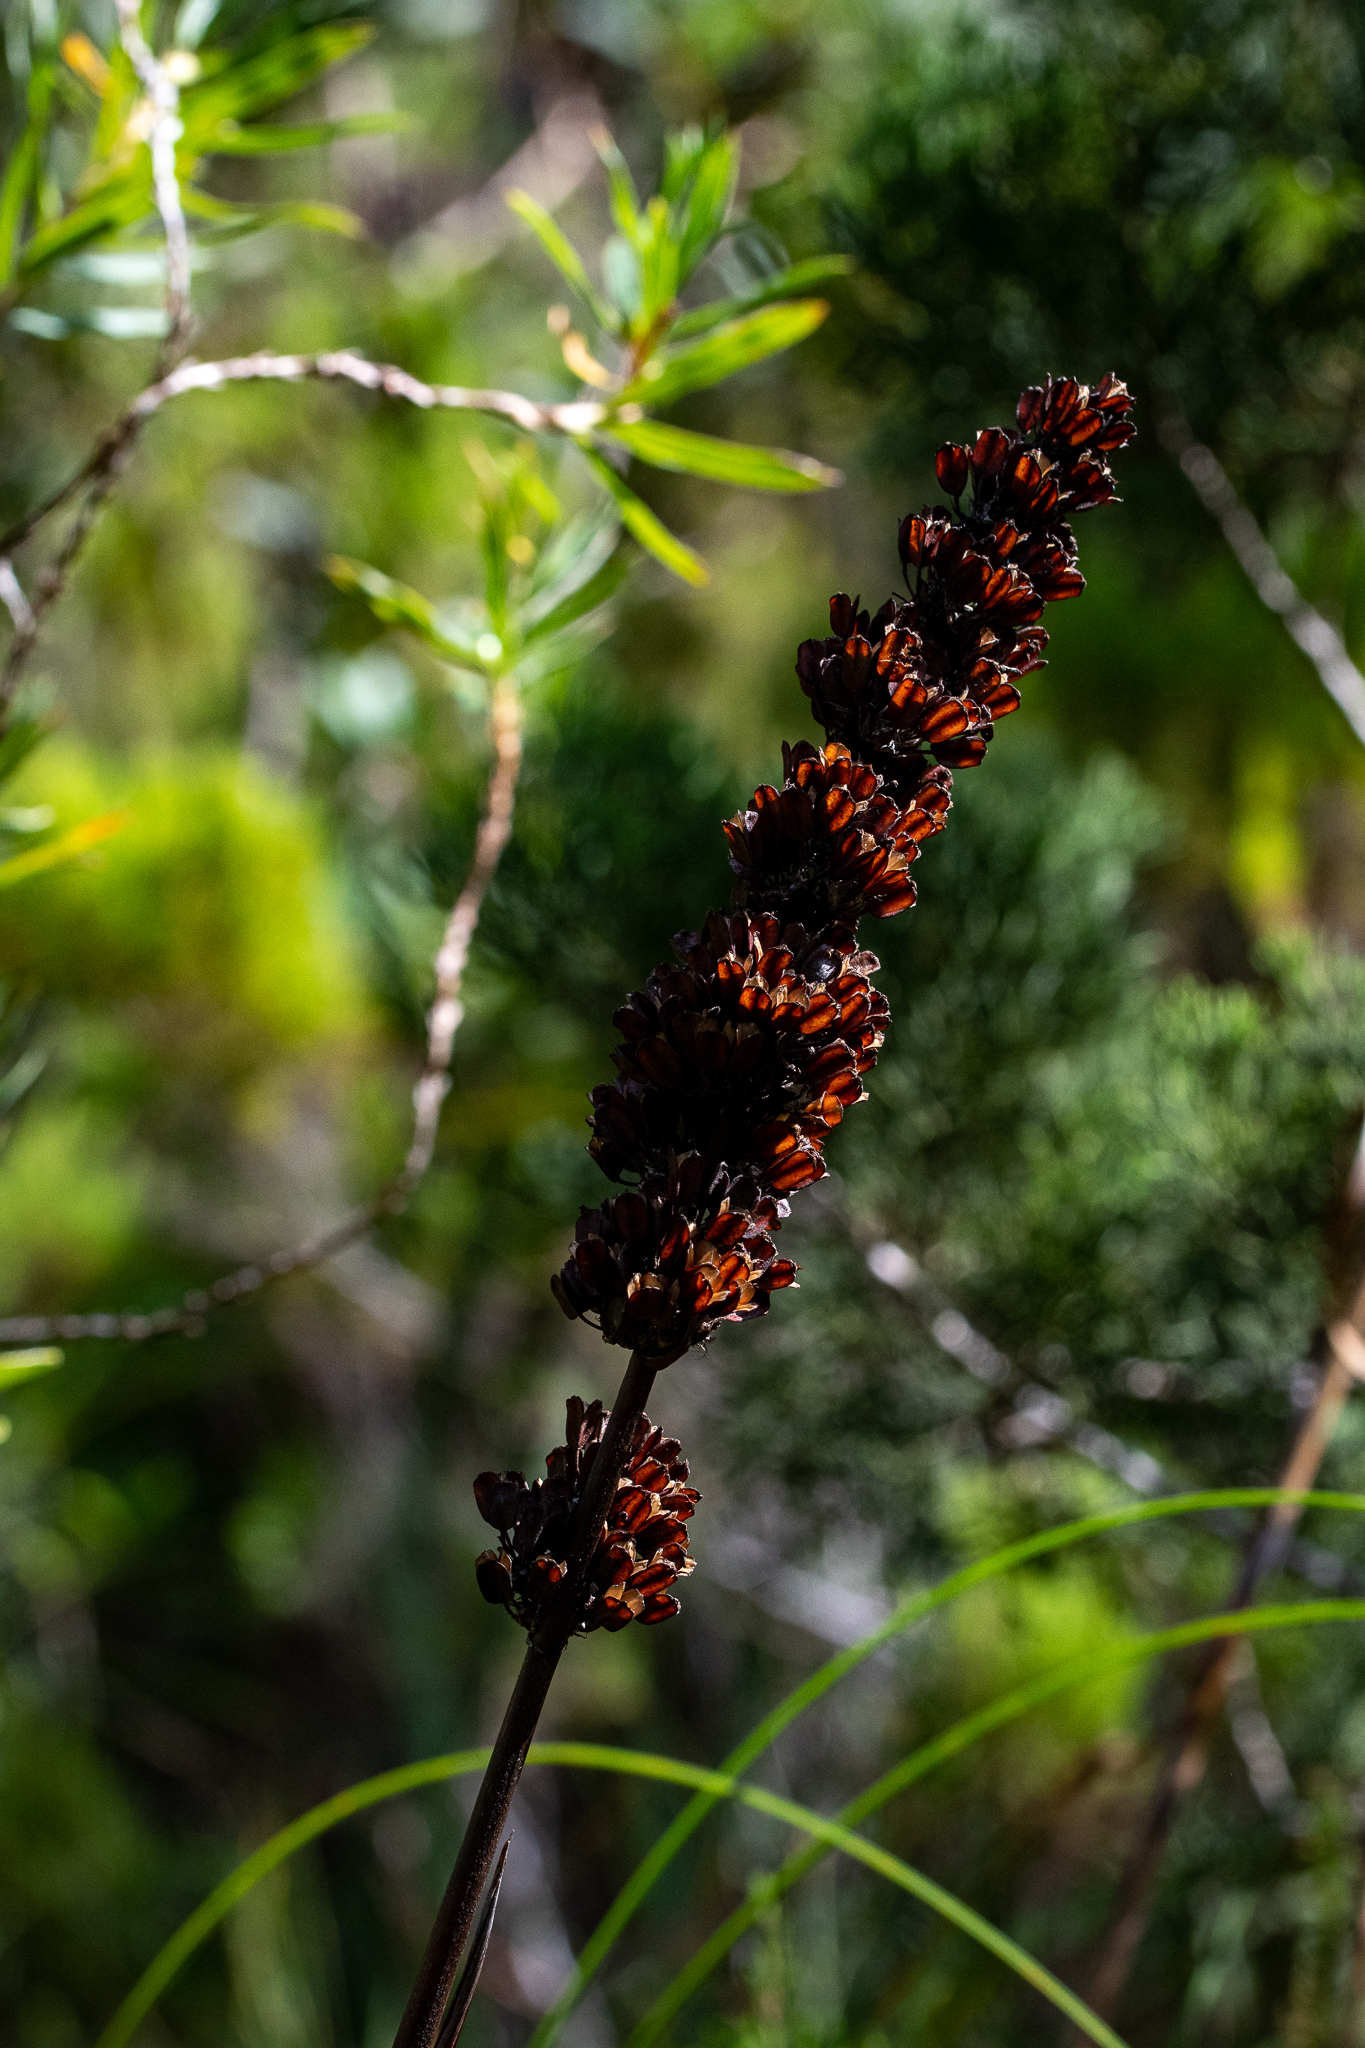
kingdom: Plantae
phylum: Tracheophyta
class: Liliopsida
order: Asparagales
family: Iridaceae
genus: Aristea
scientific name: Aristea capitata
